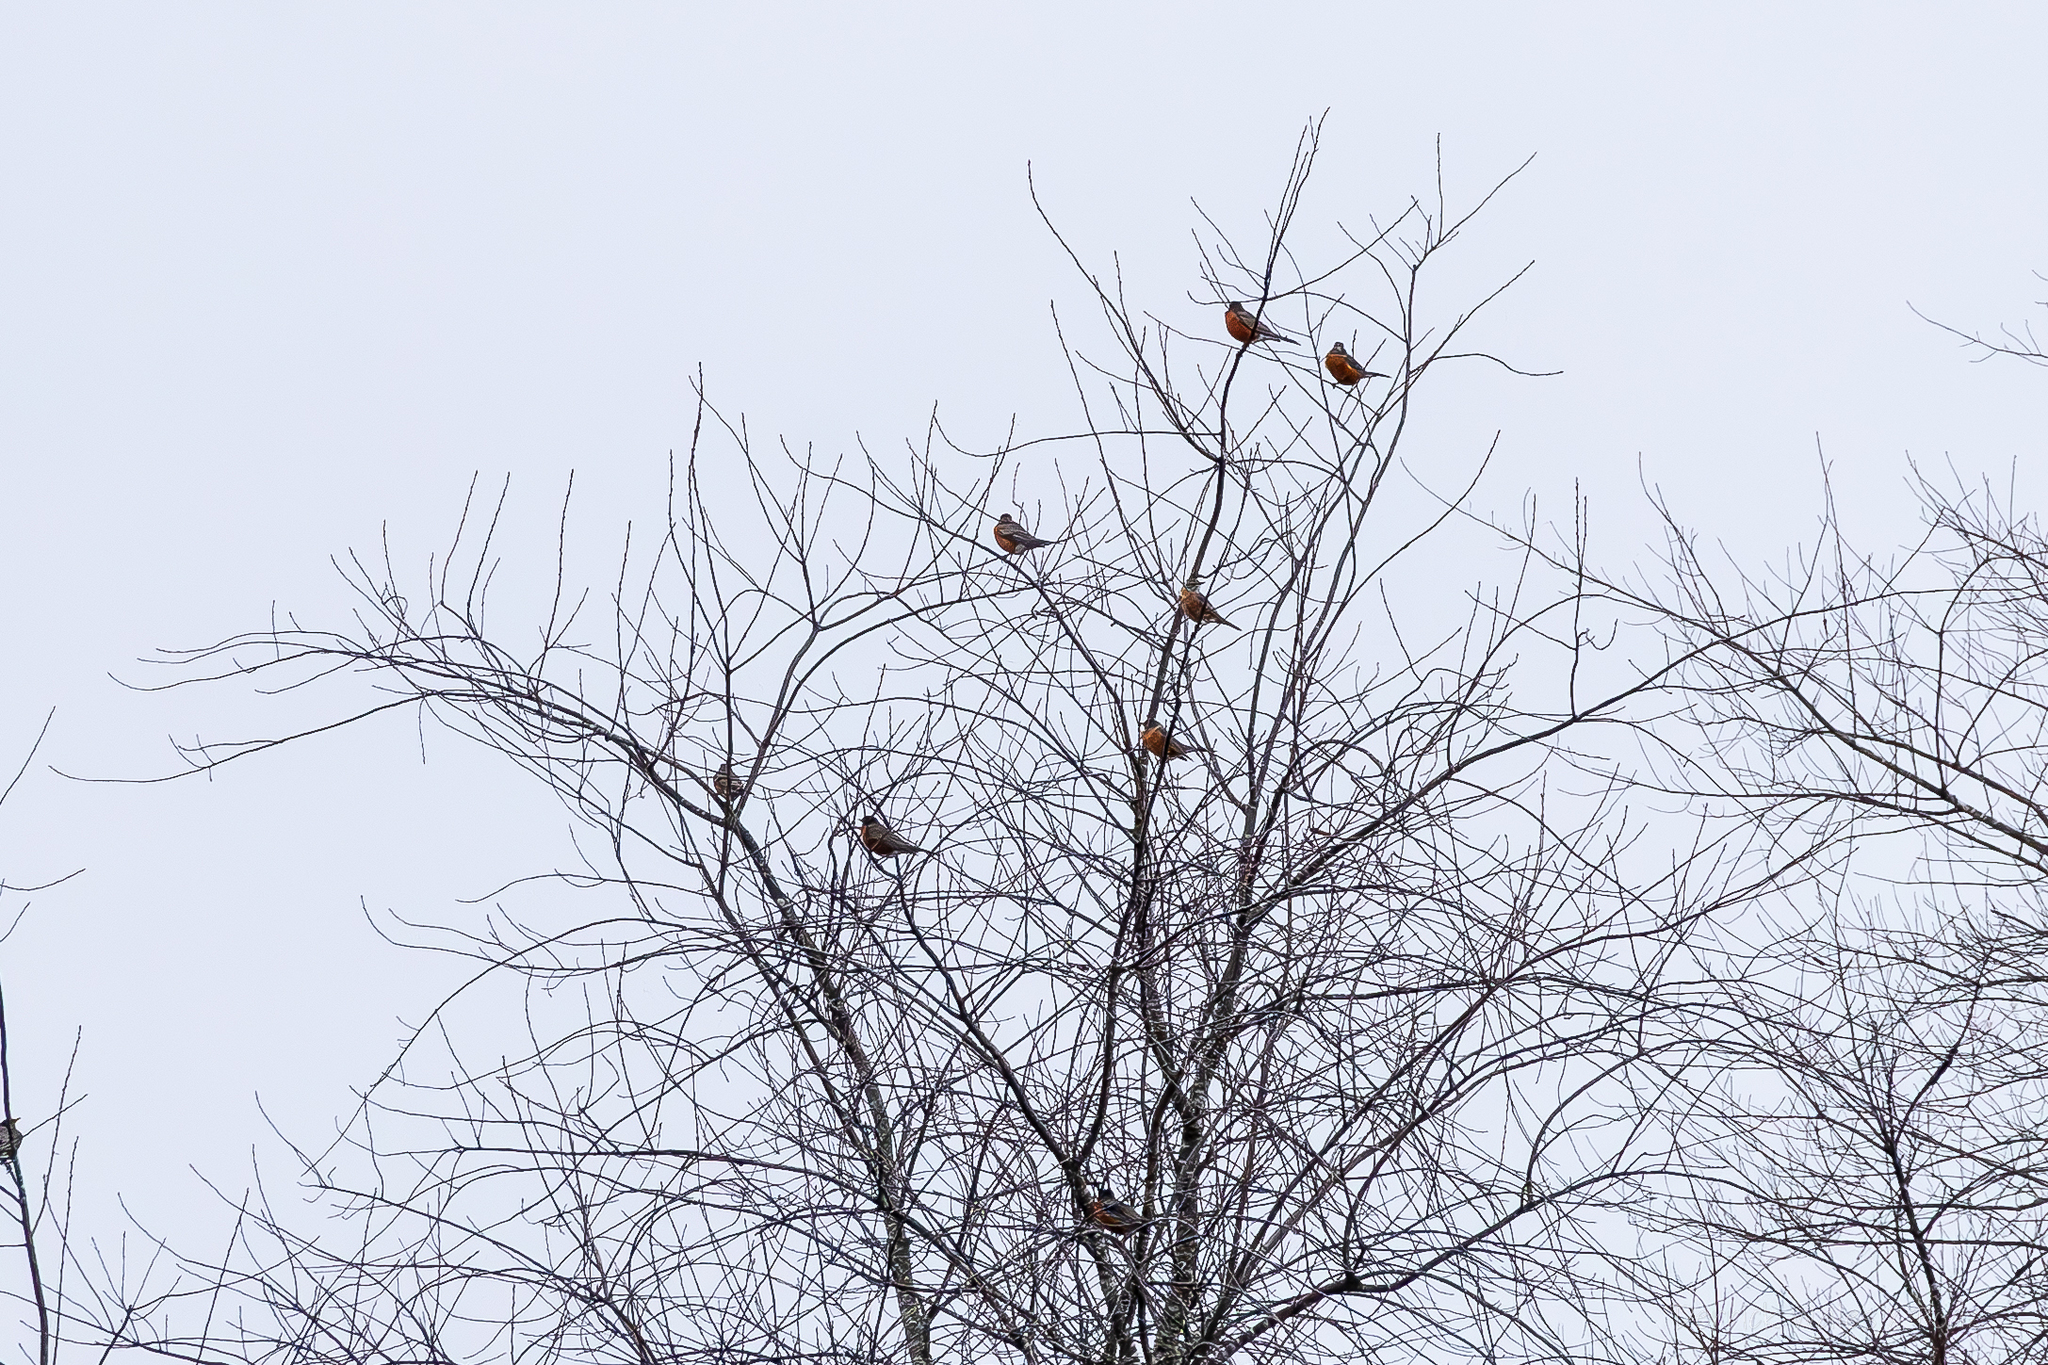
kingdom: Animalia
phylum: Chordata
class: Aves
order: Passeriformes
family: Turdidae
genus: Turdus
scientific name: Turdus migratorius
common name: American robin
